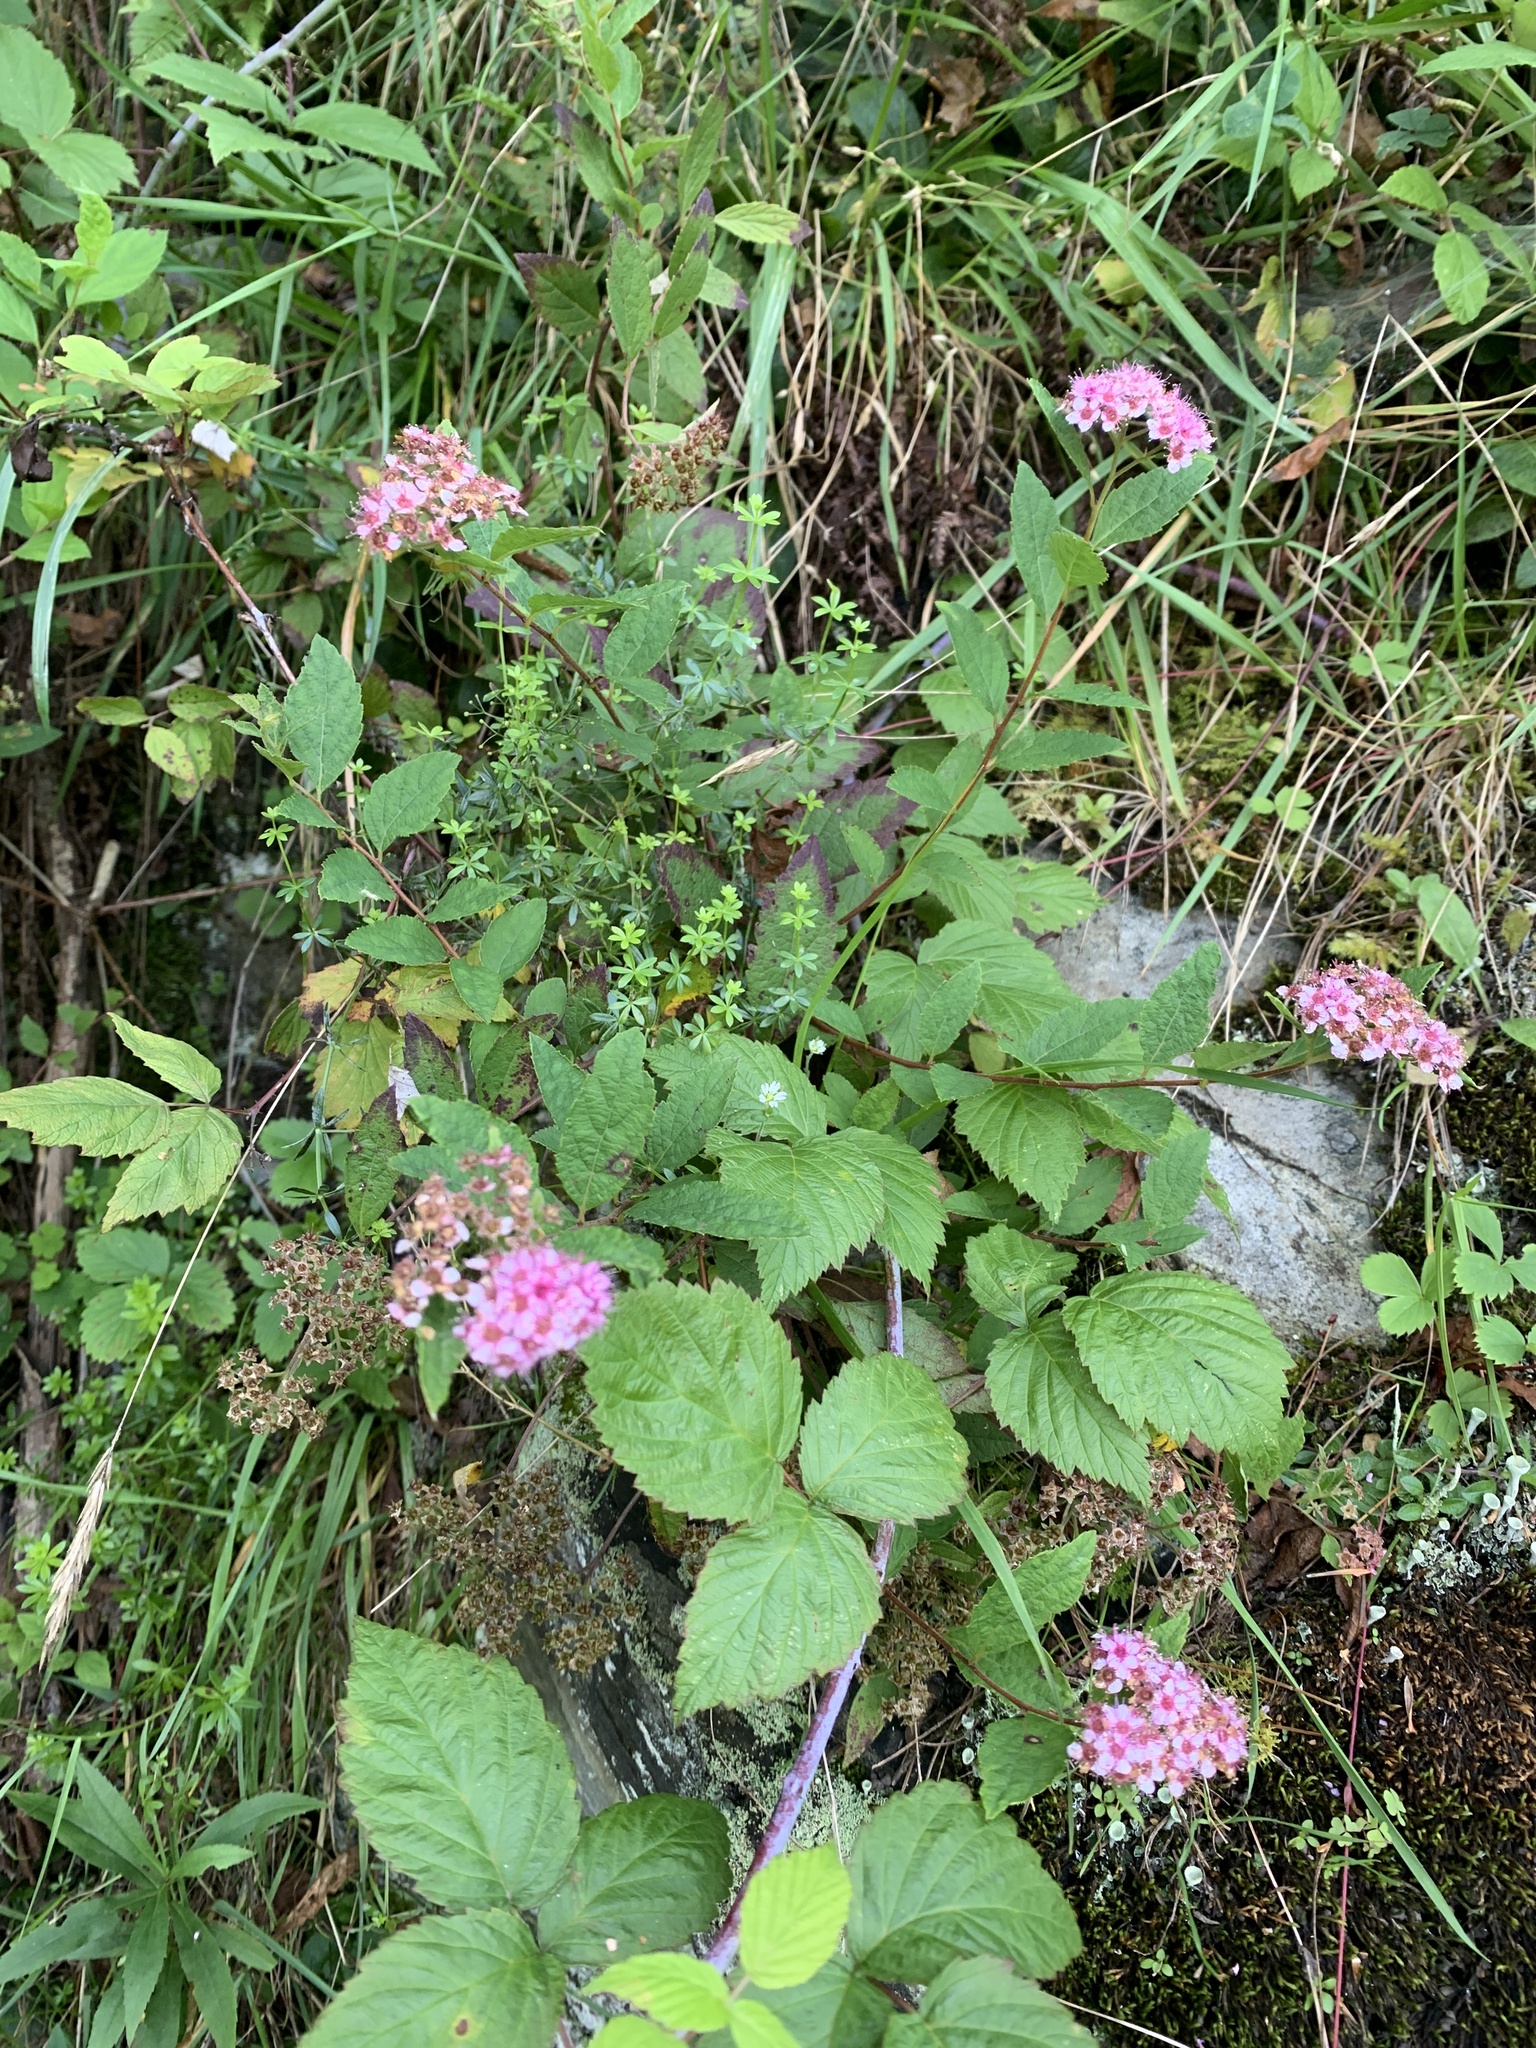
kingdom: Plantae
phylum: Tracheophyta
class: Magnoliopsida
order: Rosales
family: Rosaceae
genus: Spiraea
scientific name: Spiraea japonica
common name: Japanese spiraea
